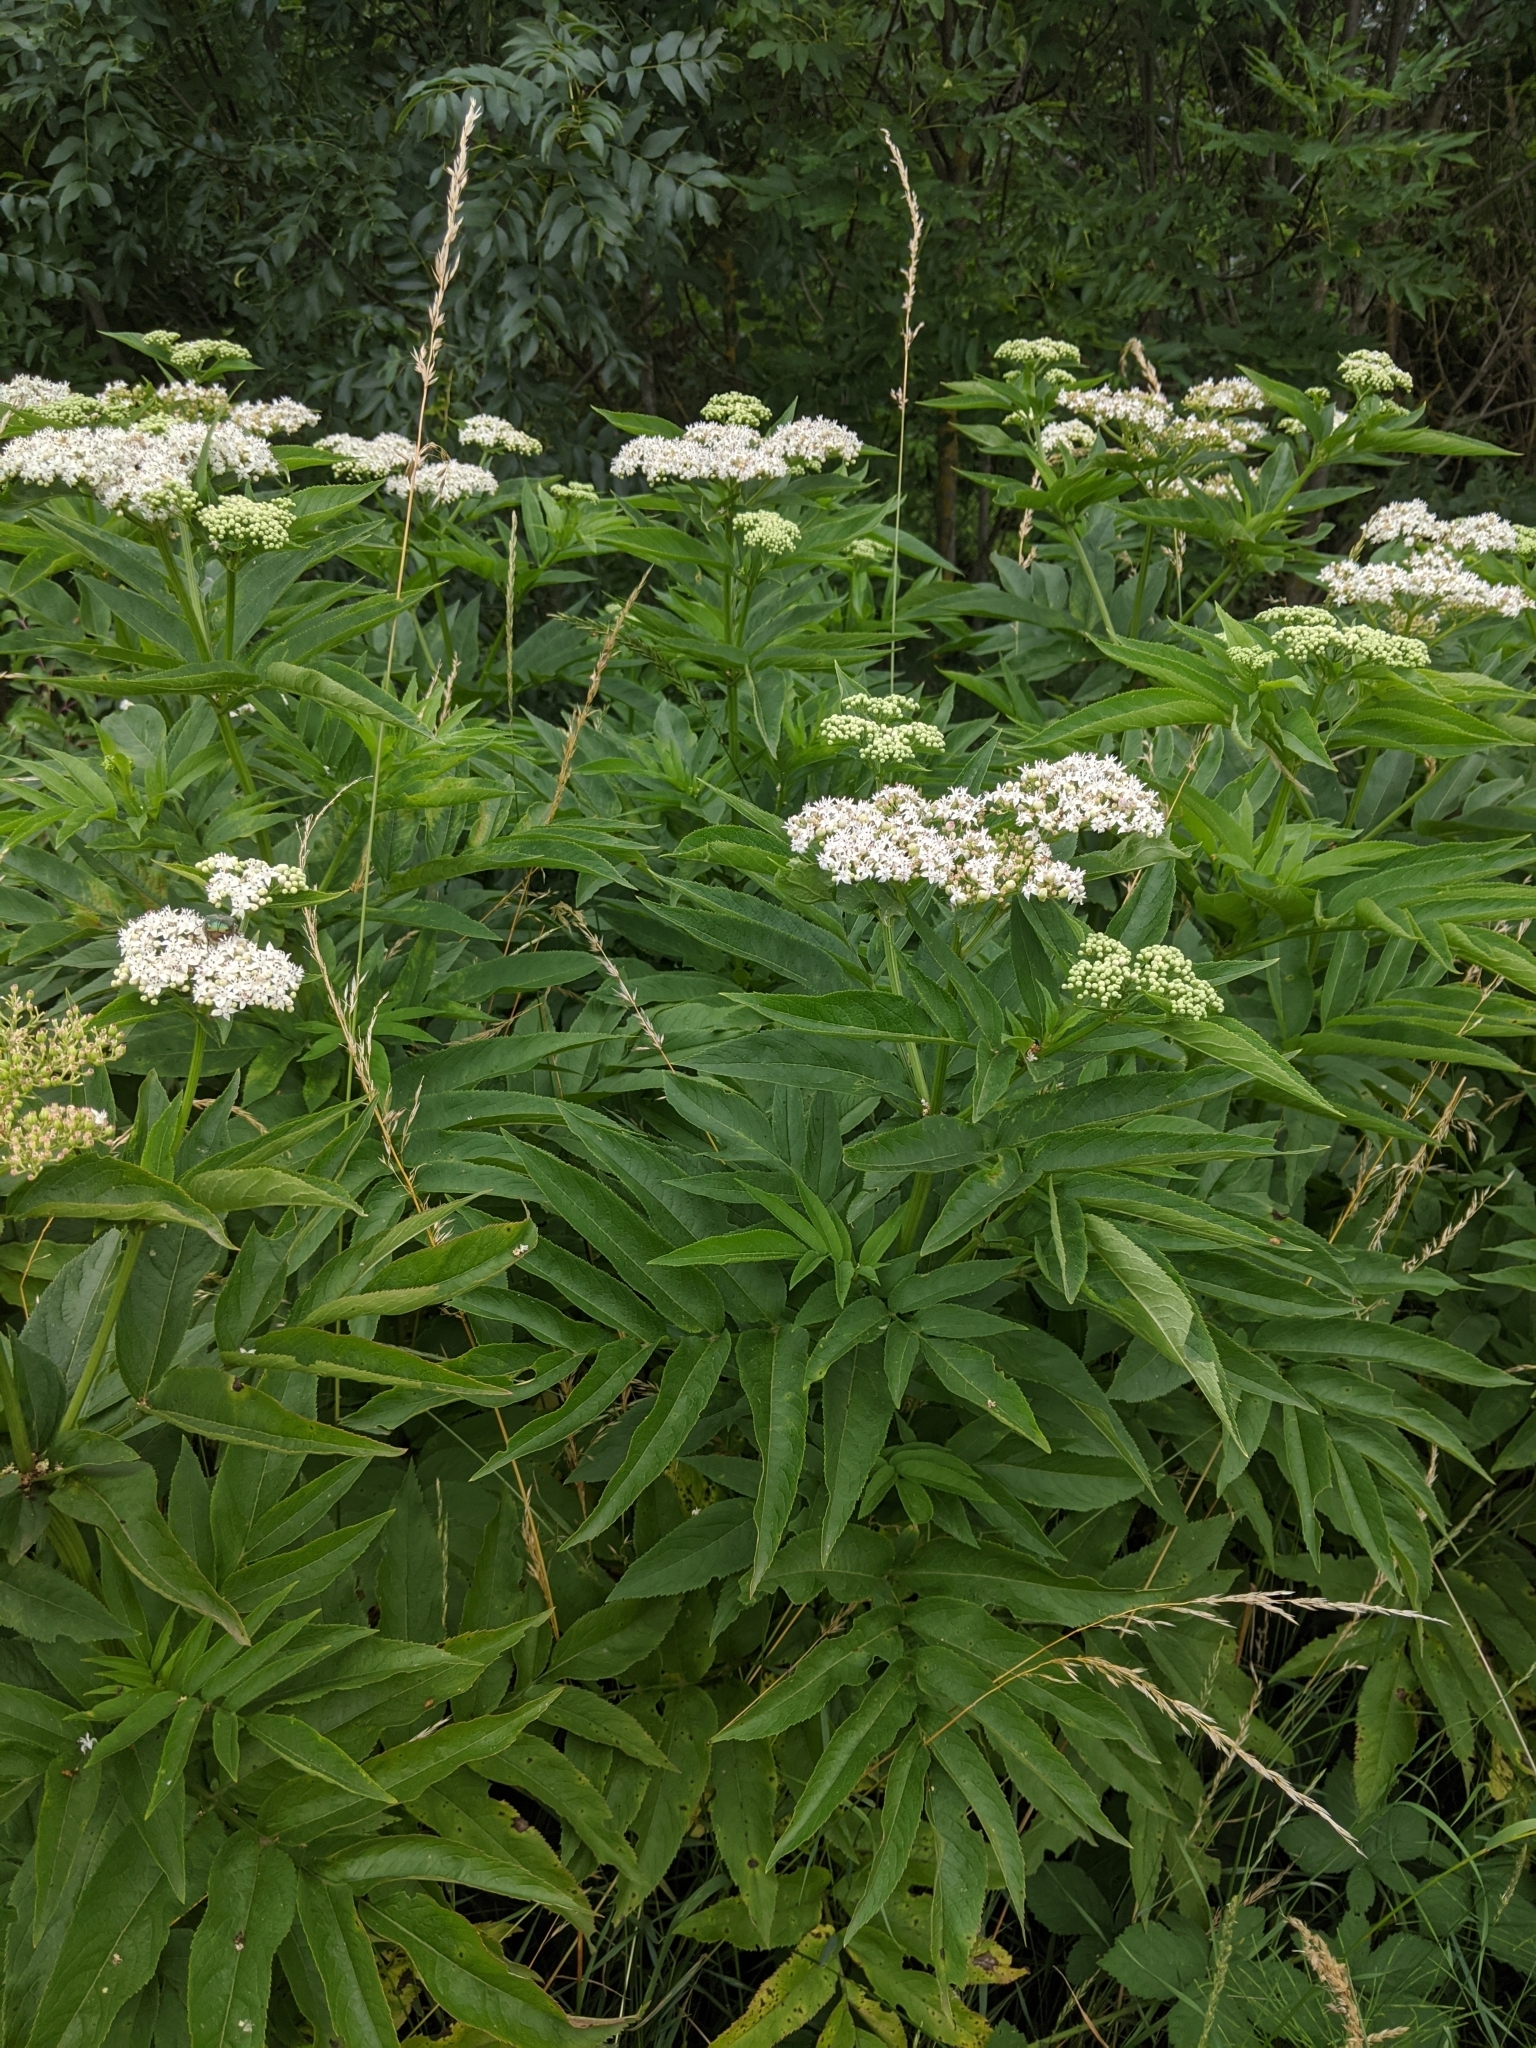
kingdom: Plantae
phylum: Tracheophyta
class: Magnoliopsida
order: Dipsacales
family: Viburnaceae
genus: Sambucus
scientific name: Sambucus ebulus
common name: Dwarf elder
